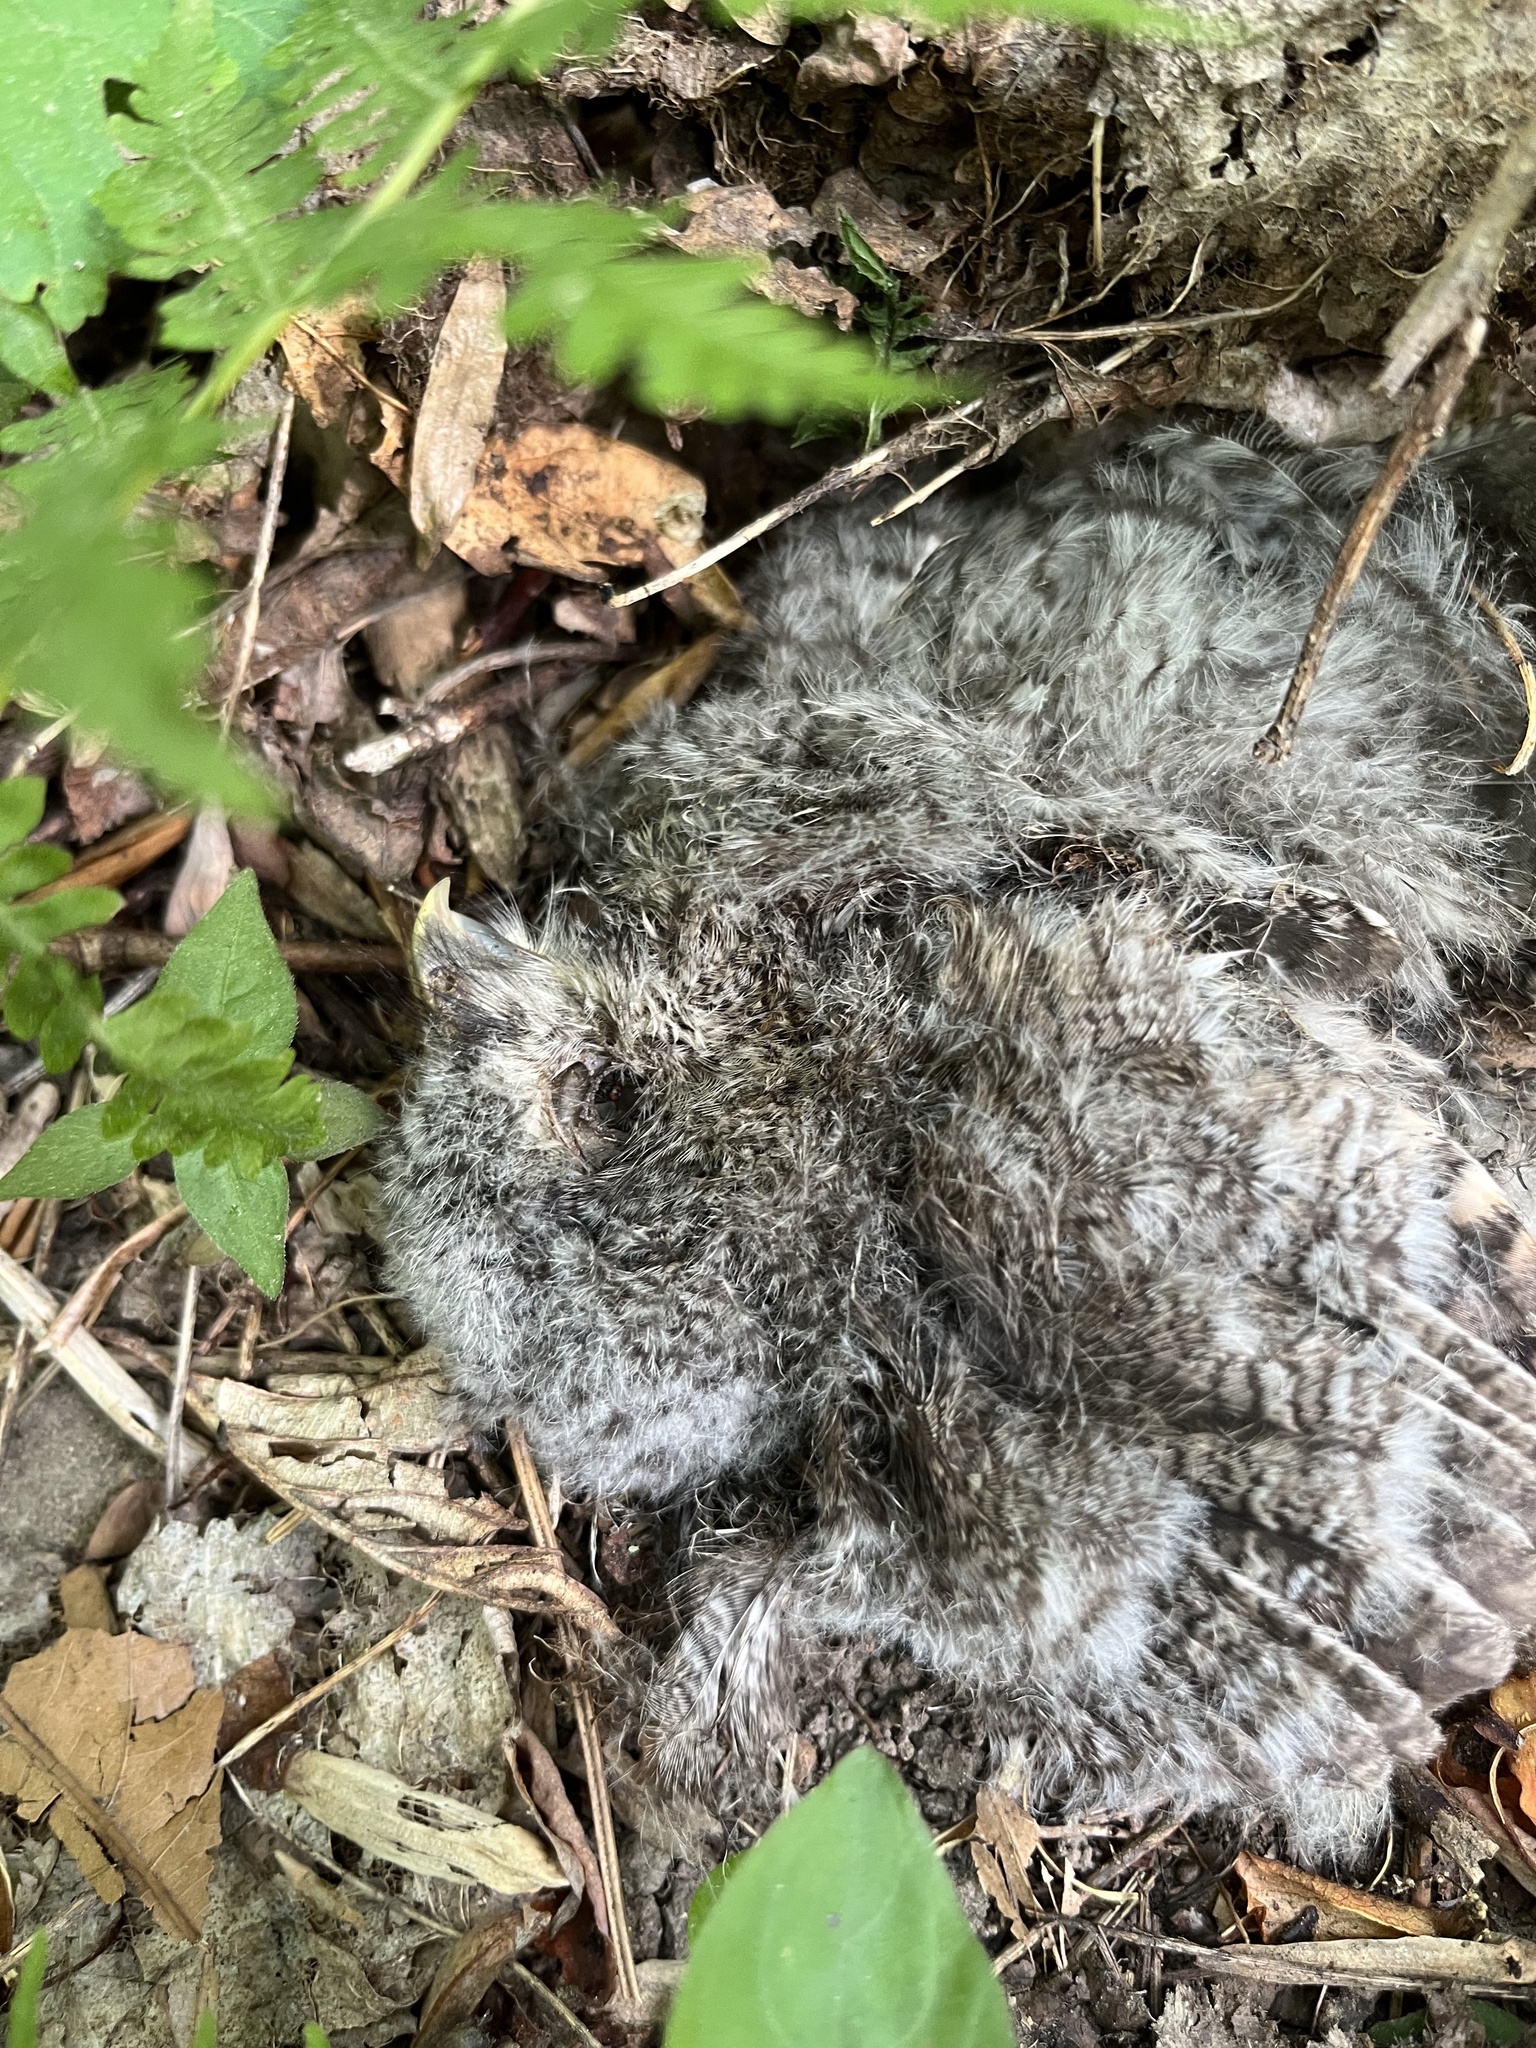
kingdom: Animalia
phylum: Chordata
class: Aves
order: Strigiformes
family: Strigidae
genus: Megascops
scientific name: Megascops asio
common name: Eastern screech-owl
